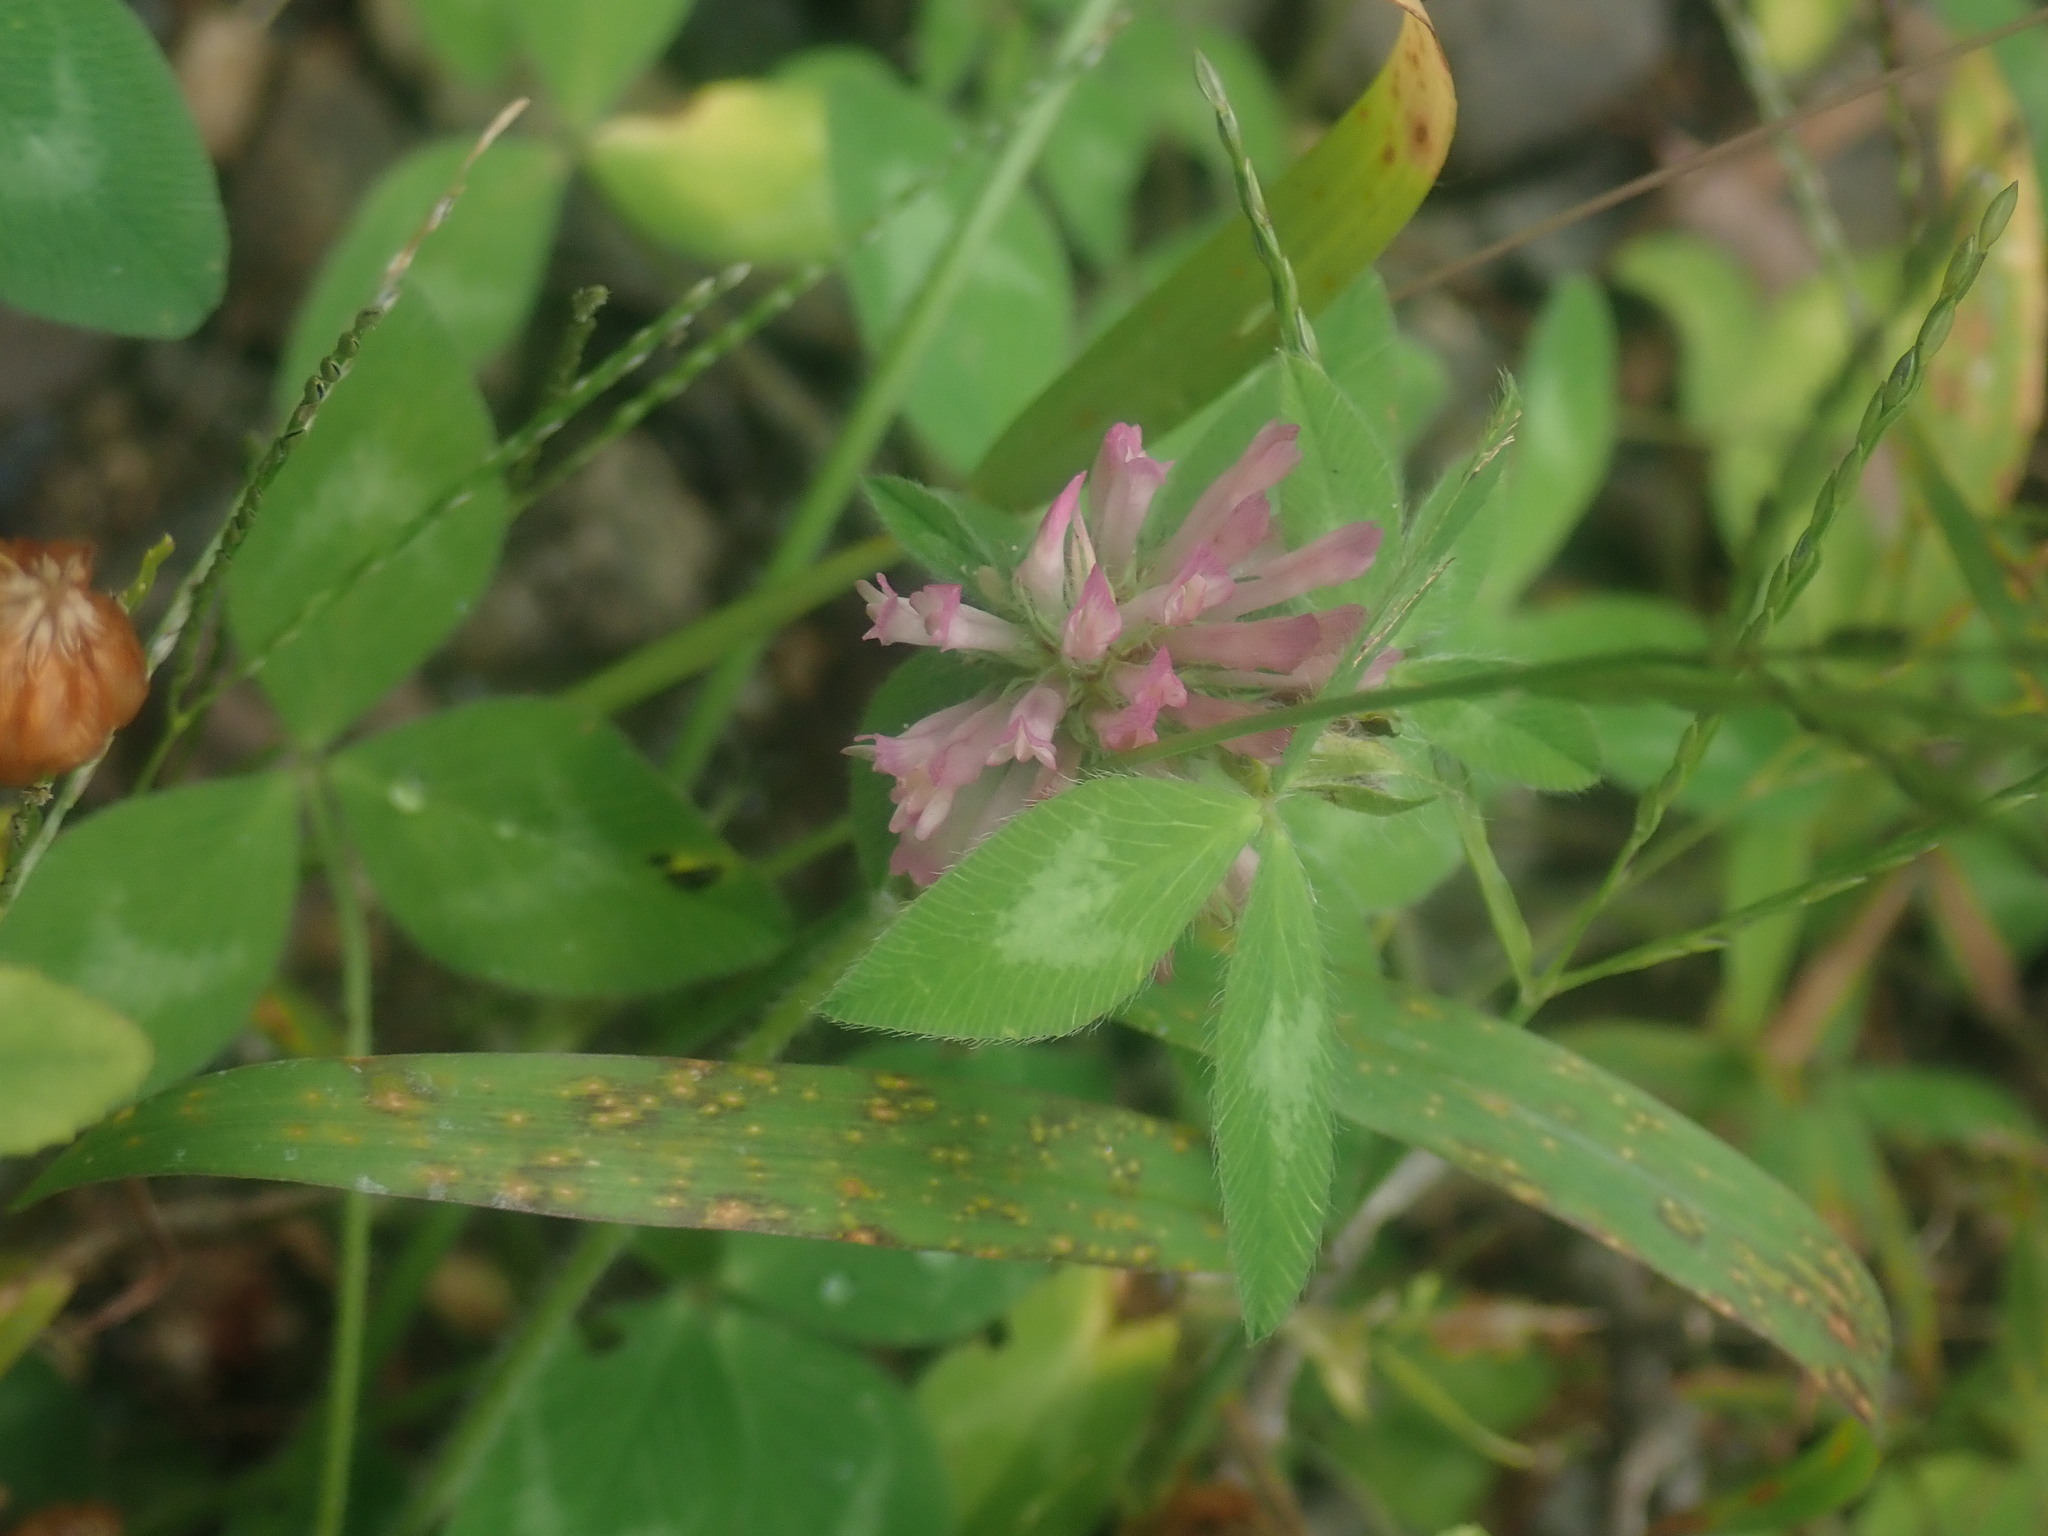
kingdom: Plantae
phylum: Tracheophyta
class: Magnoliopsida
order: Fabales
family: Fabaceae
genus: Trifolium
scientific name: Trifolium pratense
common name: Red clover
